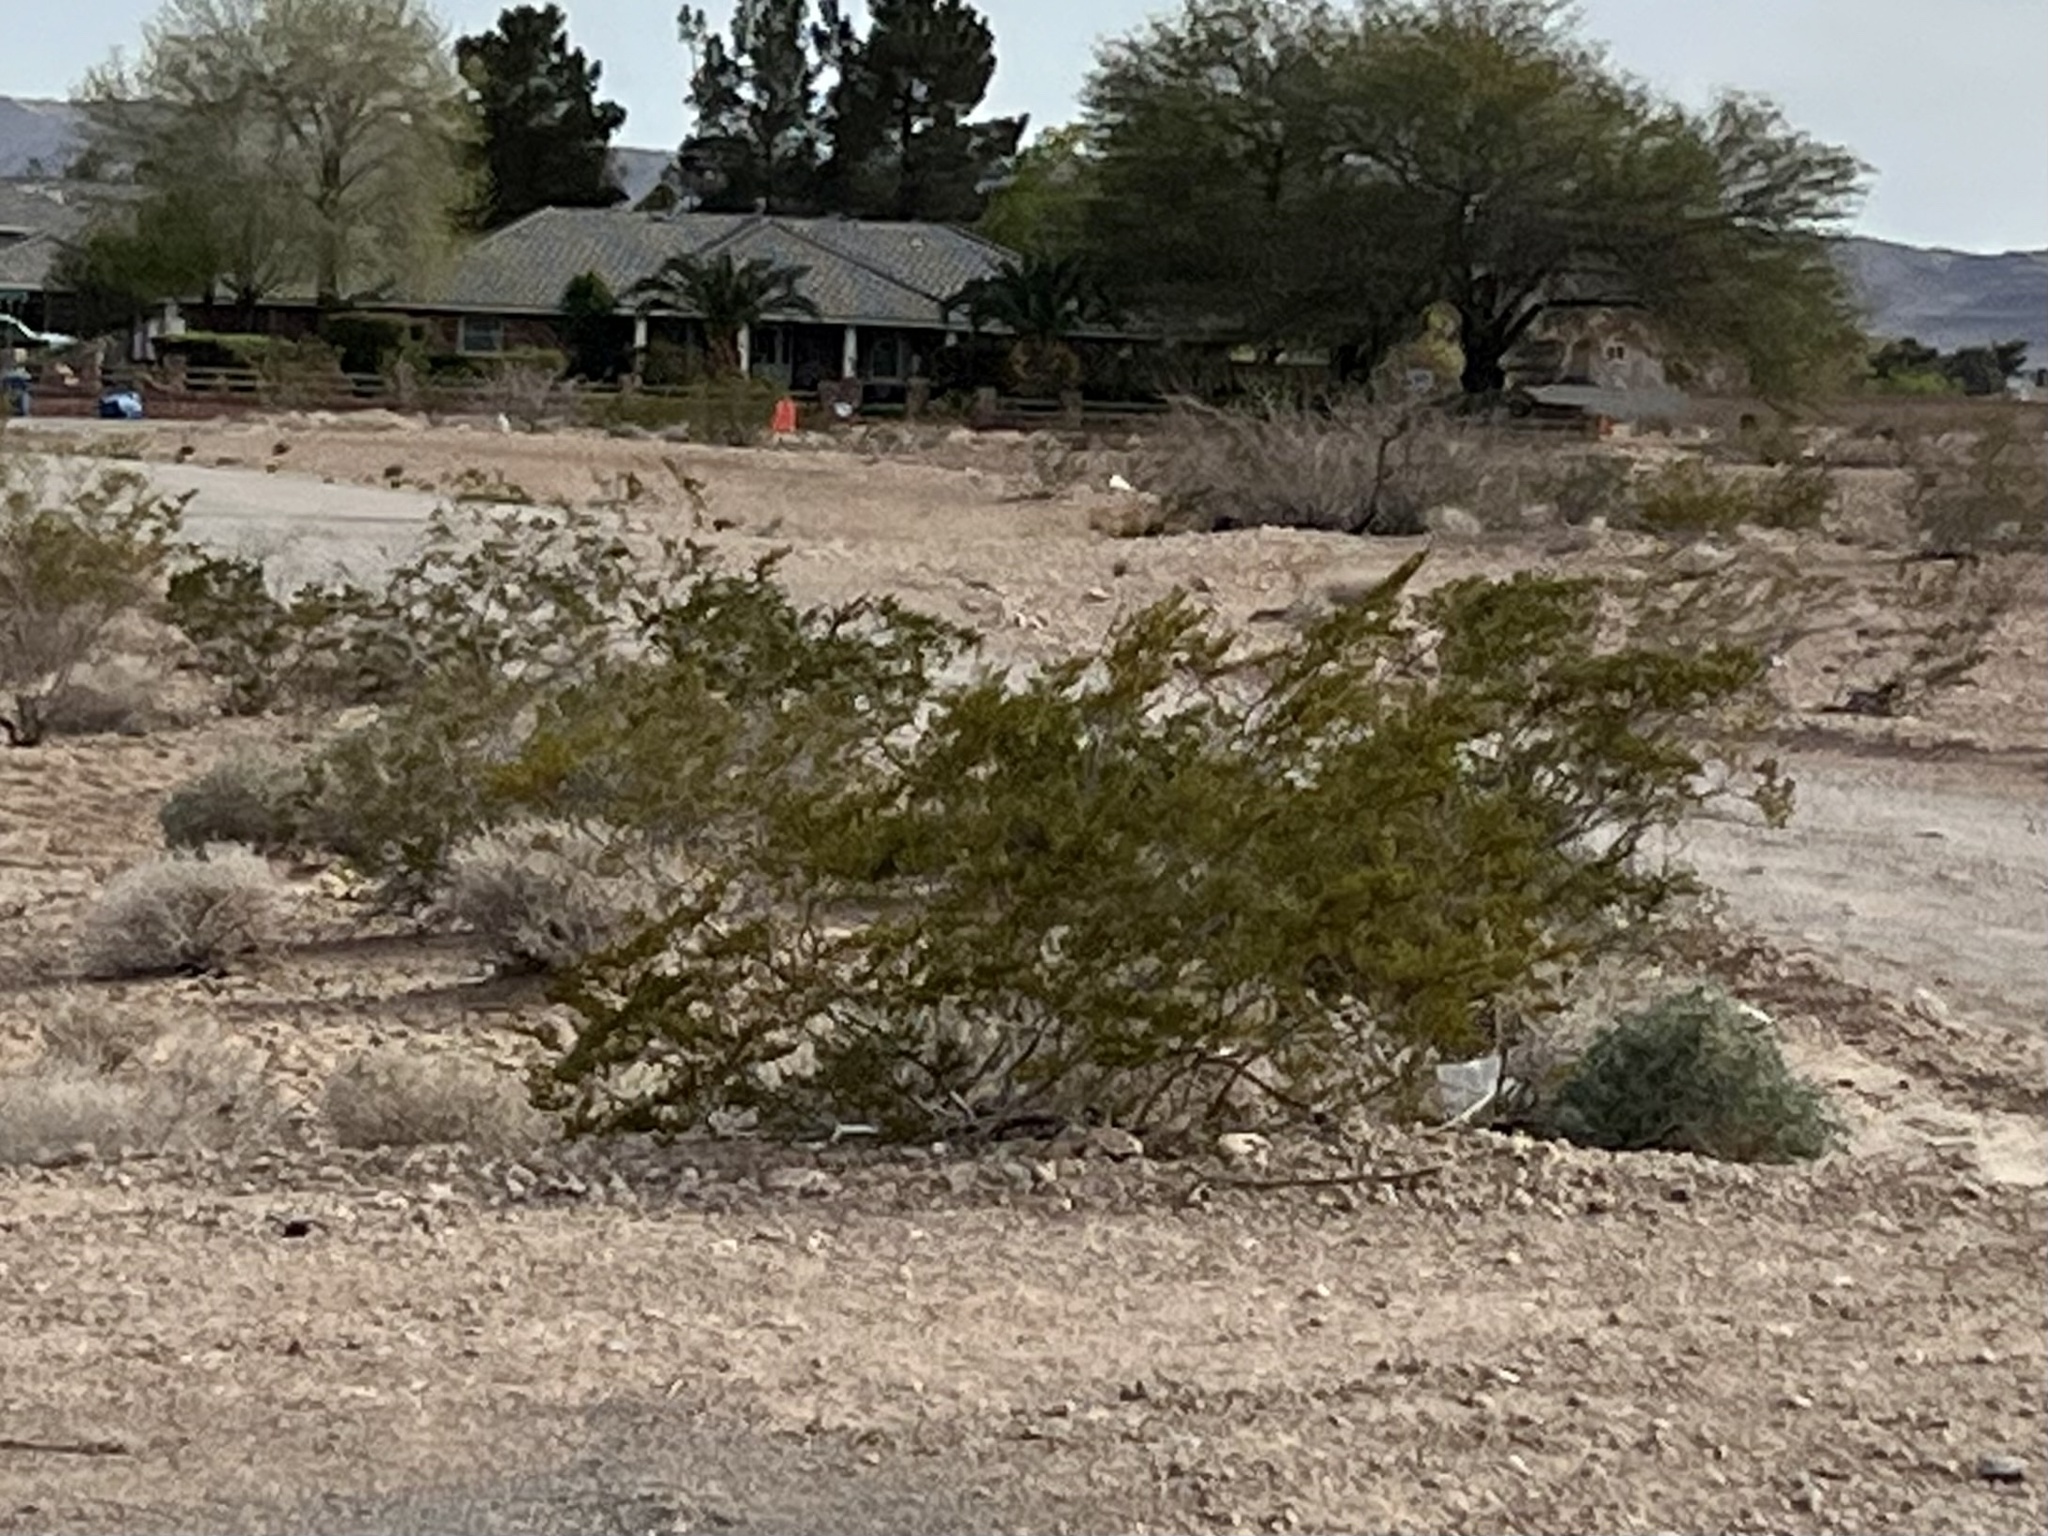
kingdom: Plantae
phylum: Tracheophyta
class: Magnoliopsida
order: Zygophyllales
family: Zygophyllaceae
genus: Larrea
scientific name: Larrea tridentata
